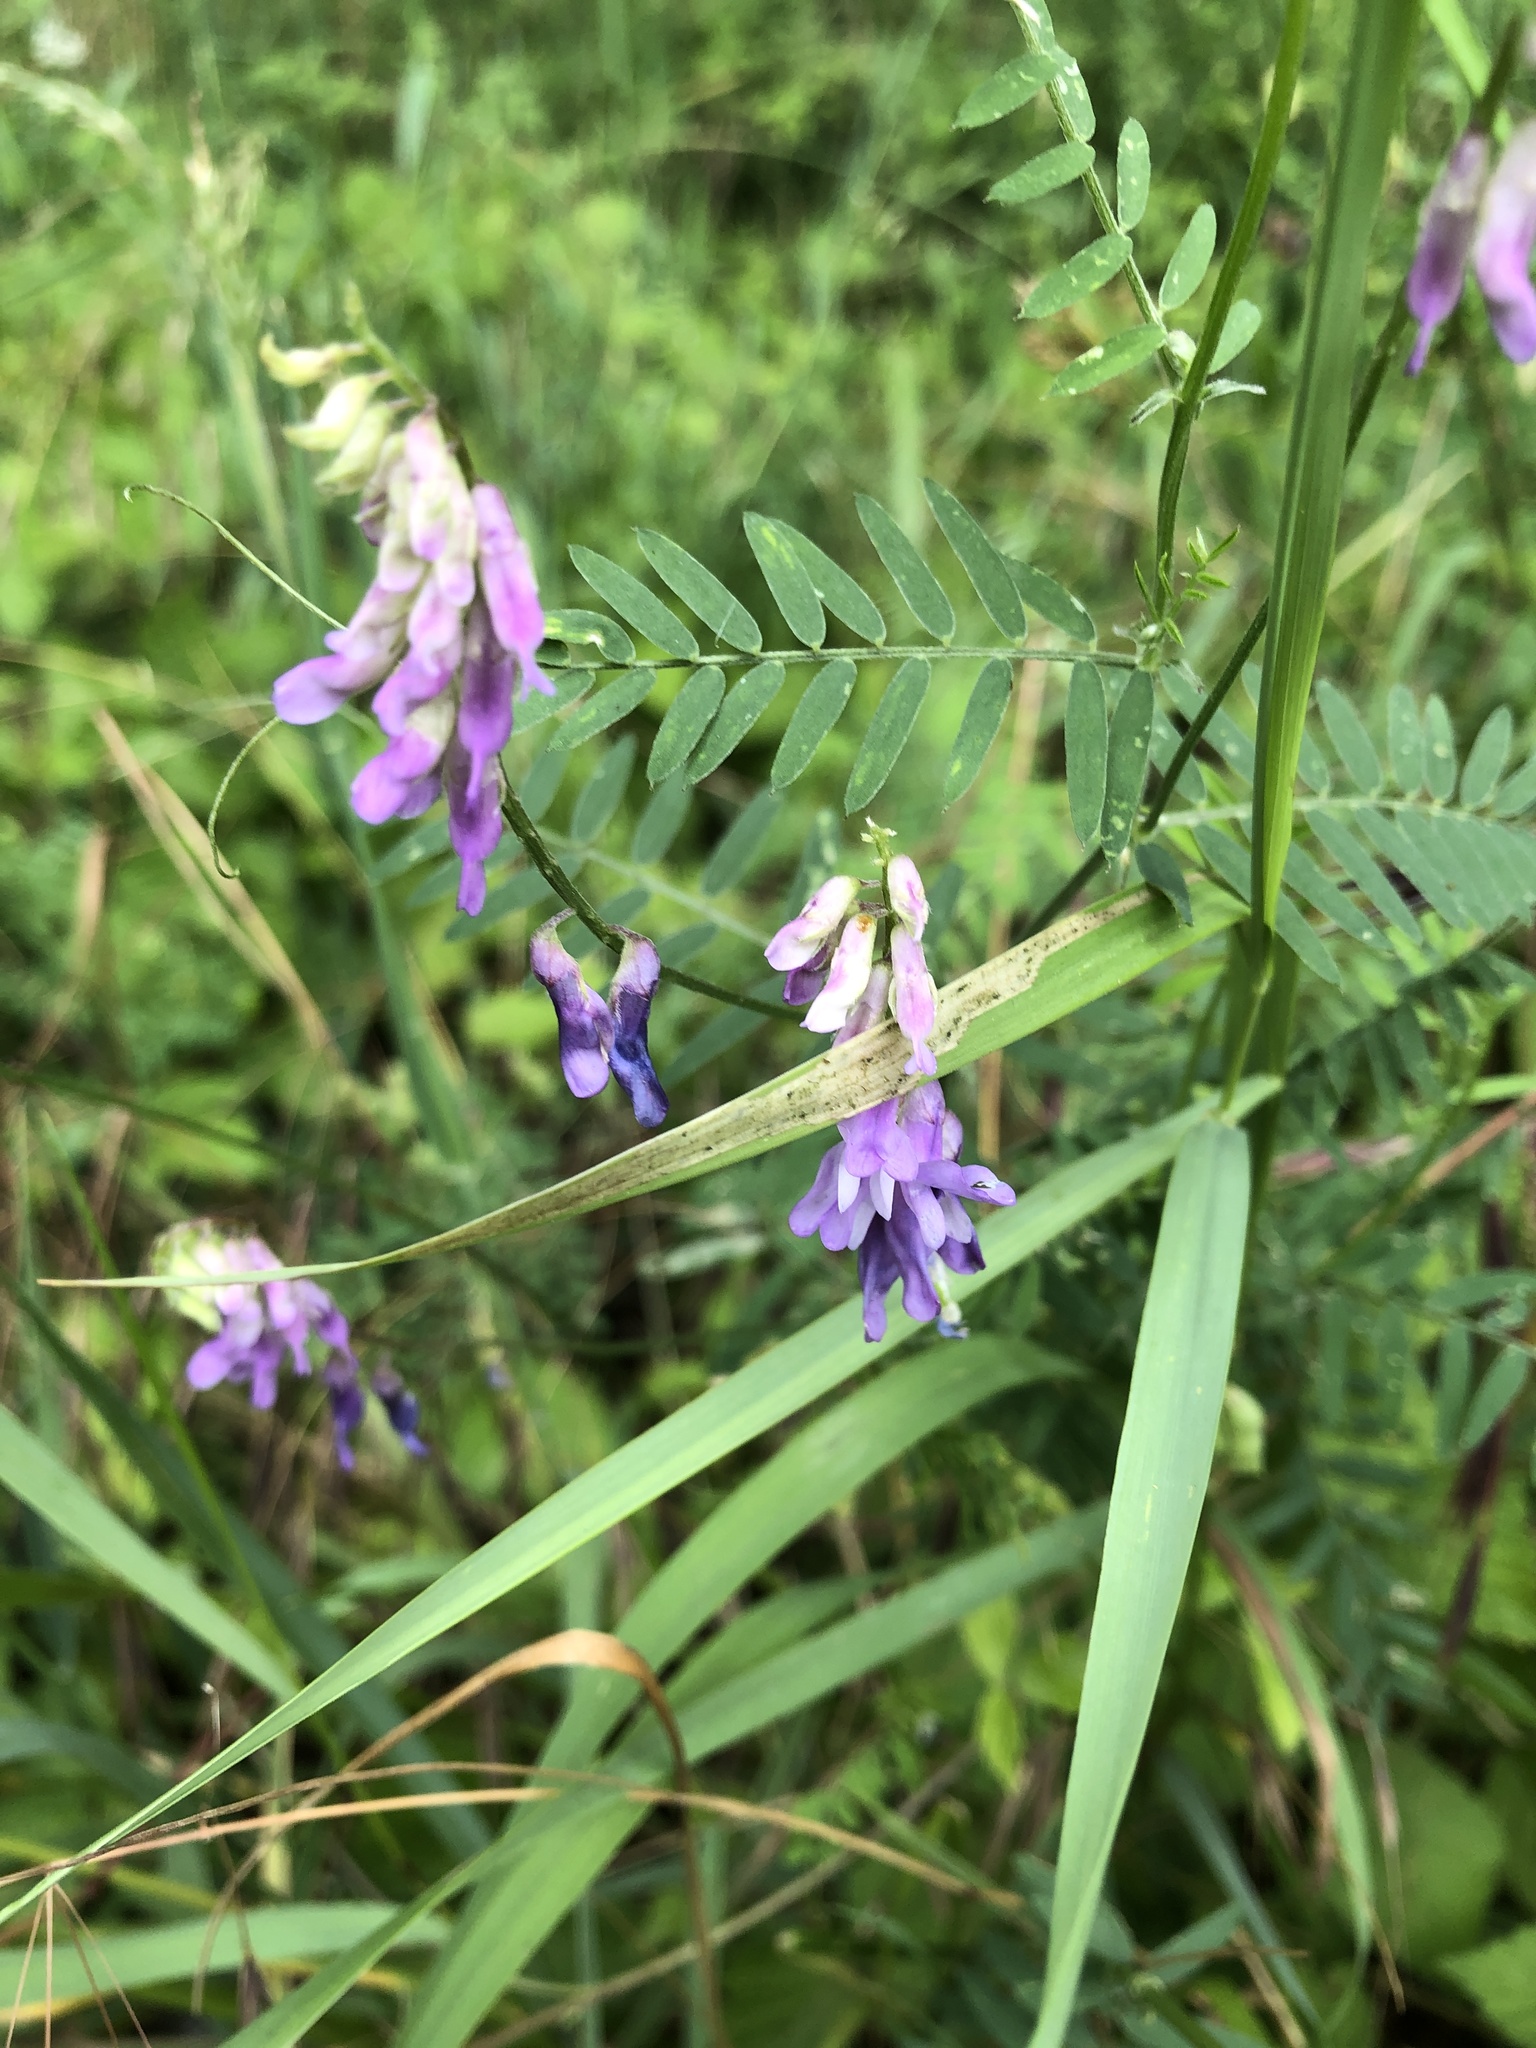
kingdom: Plantae
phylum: Tracheophyta
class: Magnoliopsida
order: Fabales
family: Fabaceae
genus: Vicia
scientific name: Vicia cracca
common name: Bird vetch
